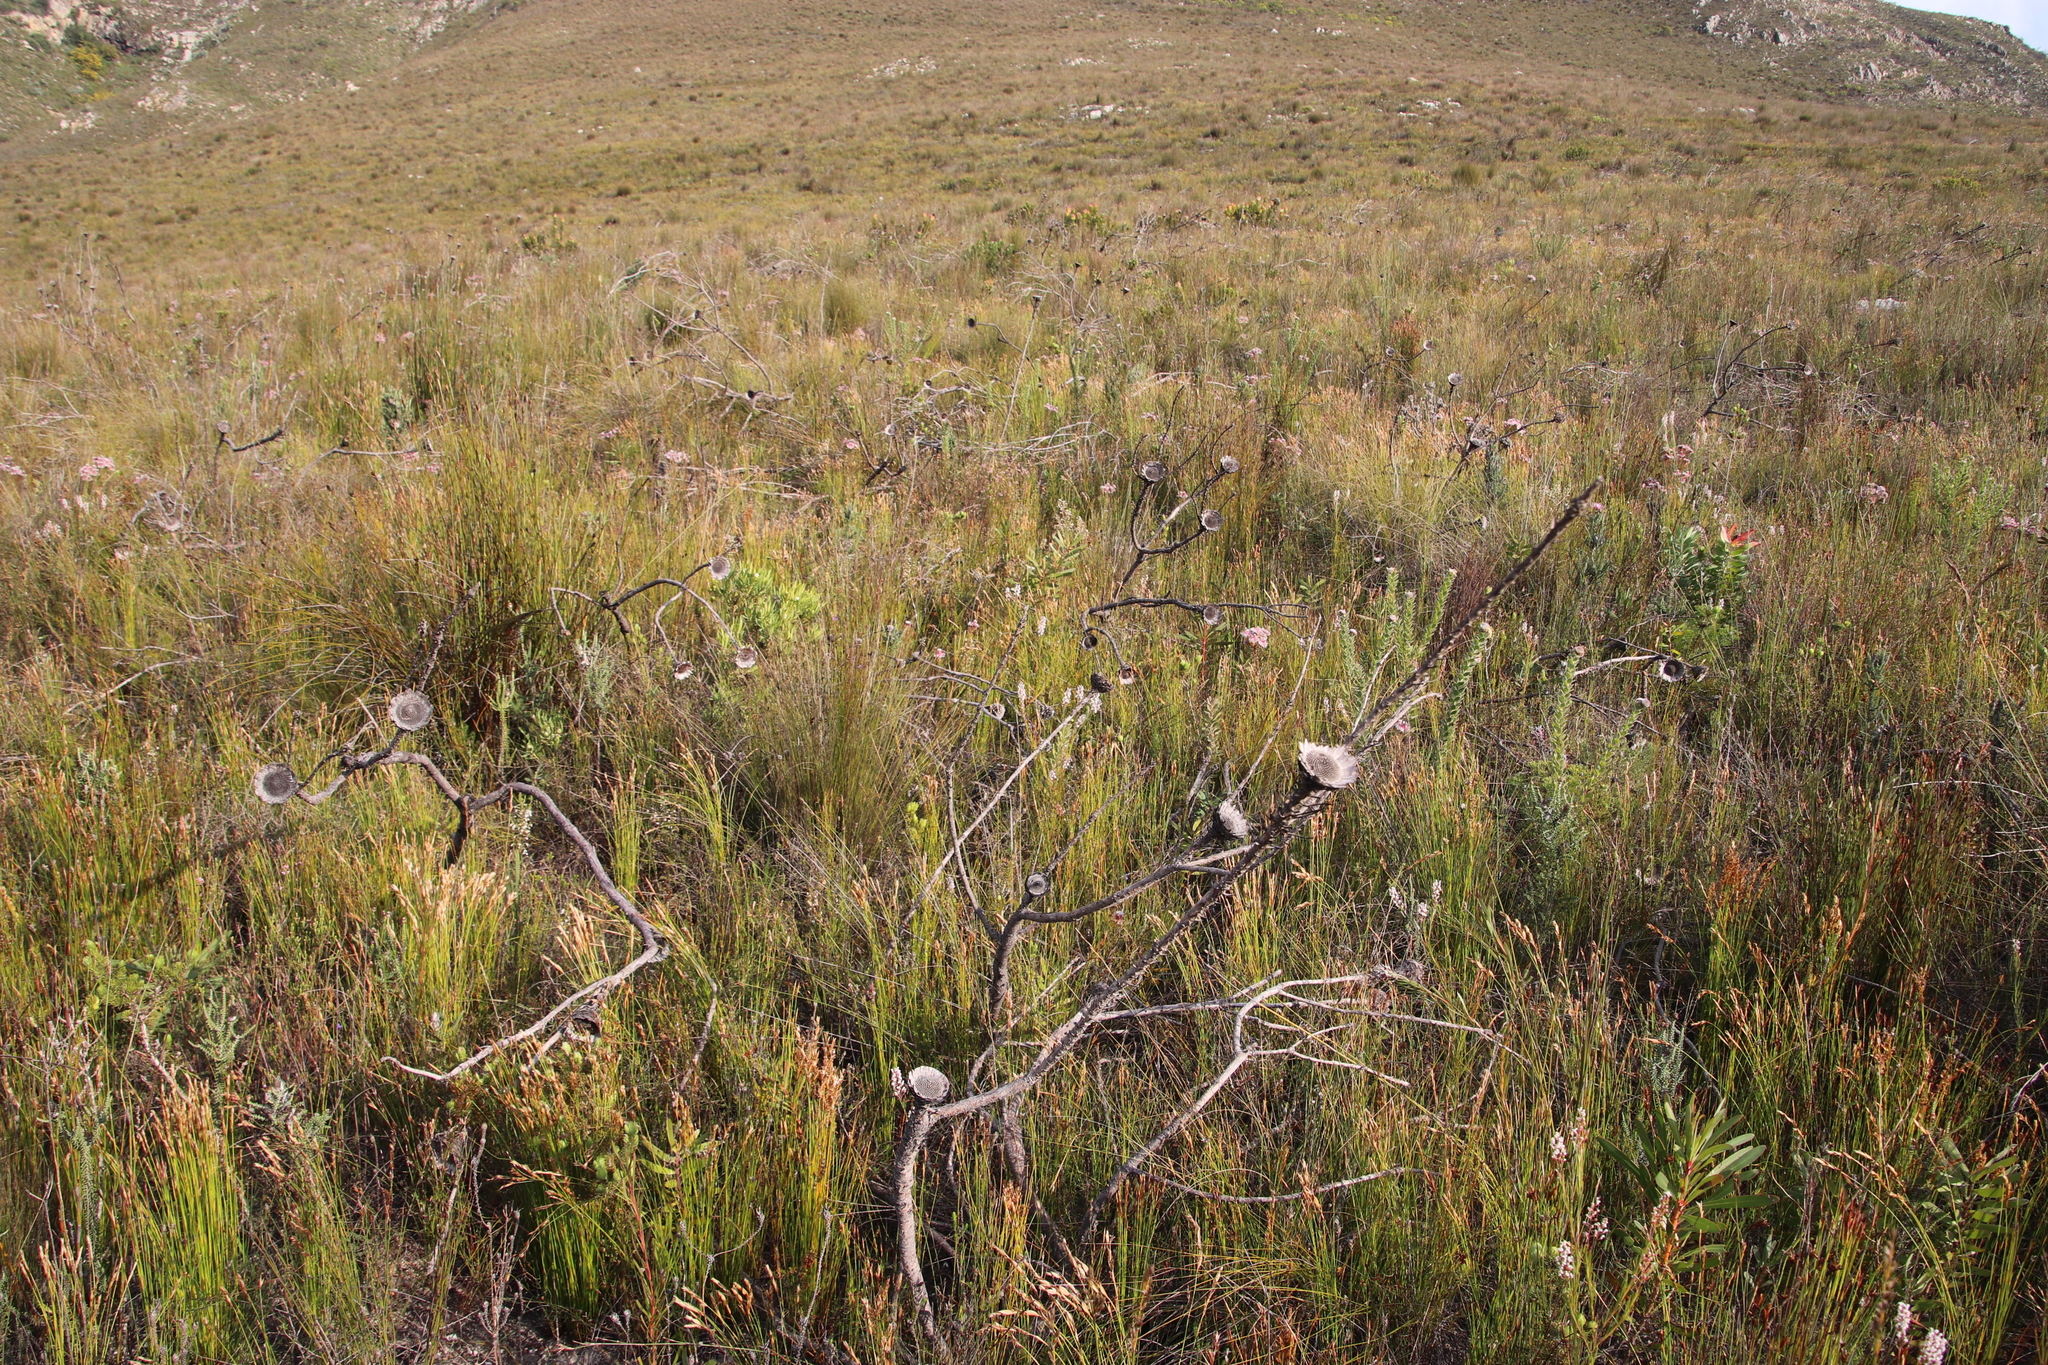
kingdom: Plantae
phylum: Tracheophyta
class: Magnoliopsida
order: Proteales
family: Proteaceae
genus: Spatalla
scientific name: Spatalla racemosa
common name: Lax-stalked spoon
